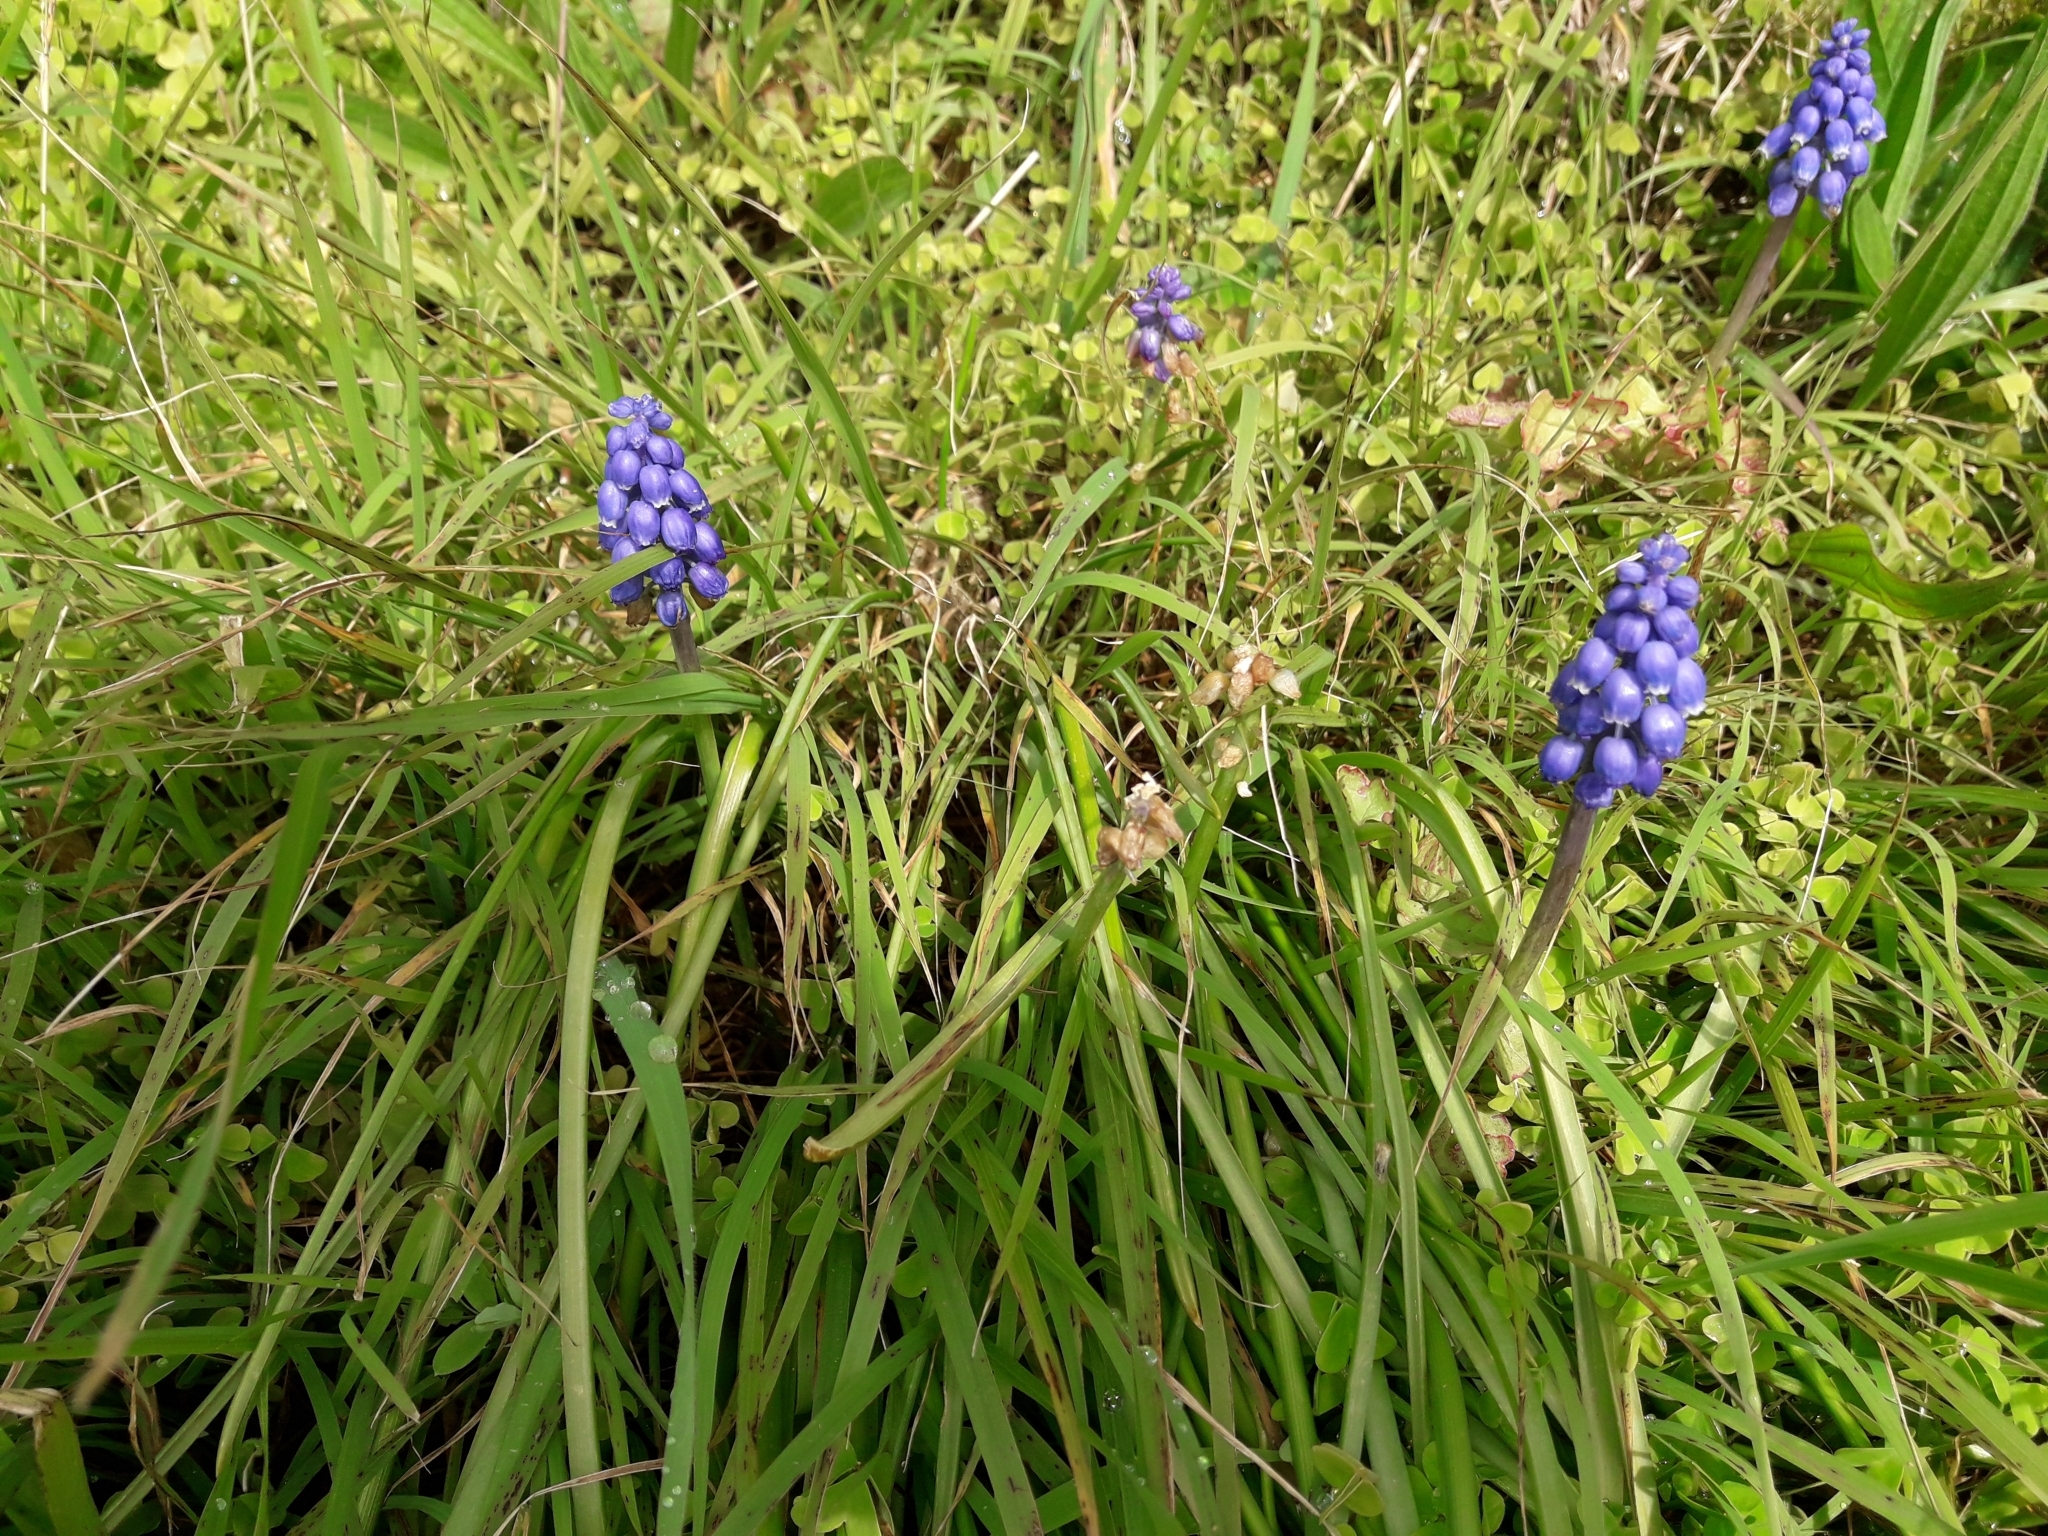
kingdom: Plantae
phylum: Tracheophyta
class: Liliopsida
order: Asparagales
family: Asparagaceae
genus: Muscari
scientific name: Muscari armeniacum
